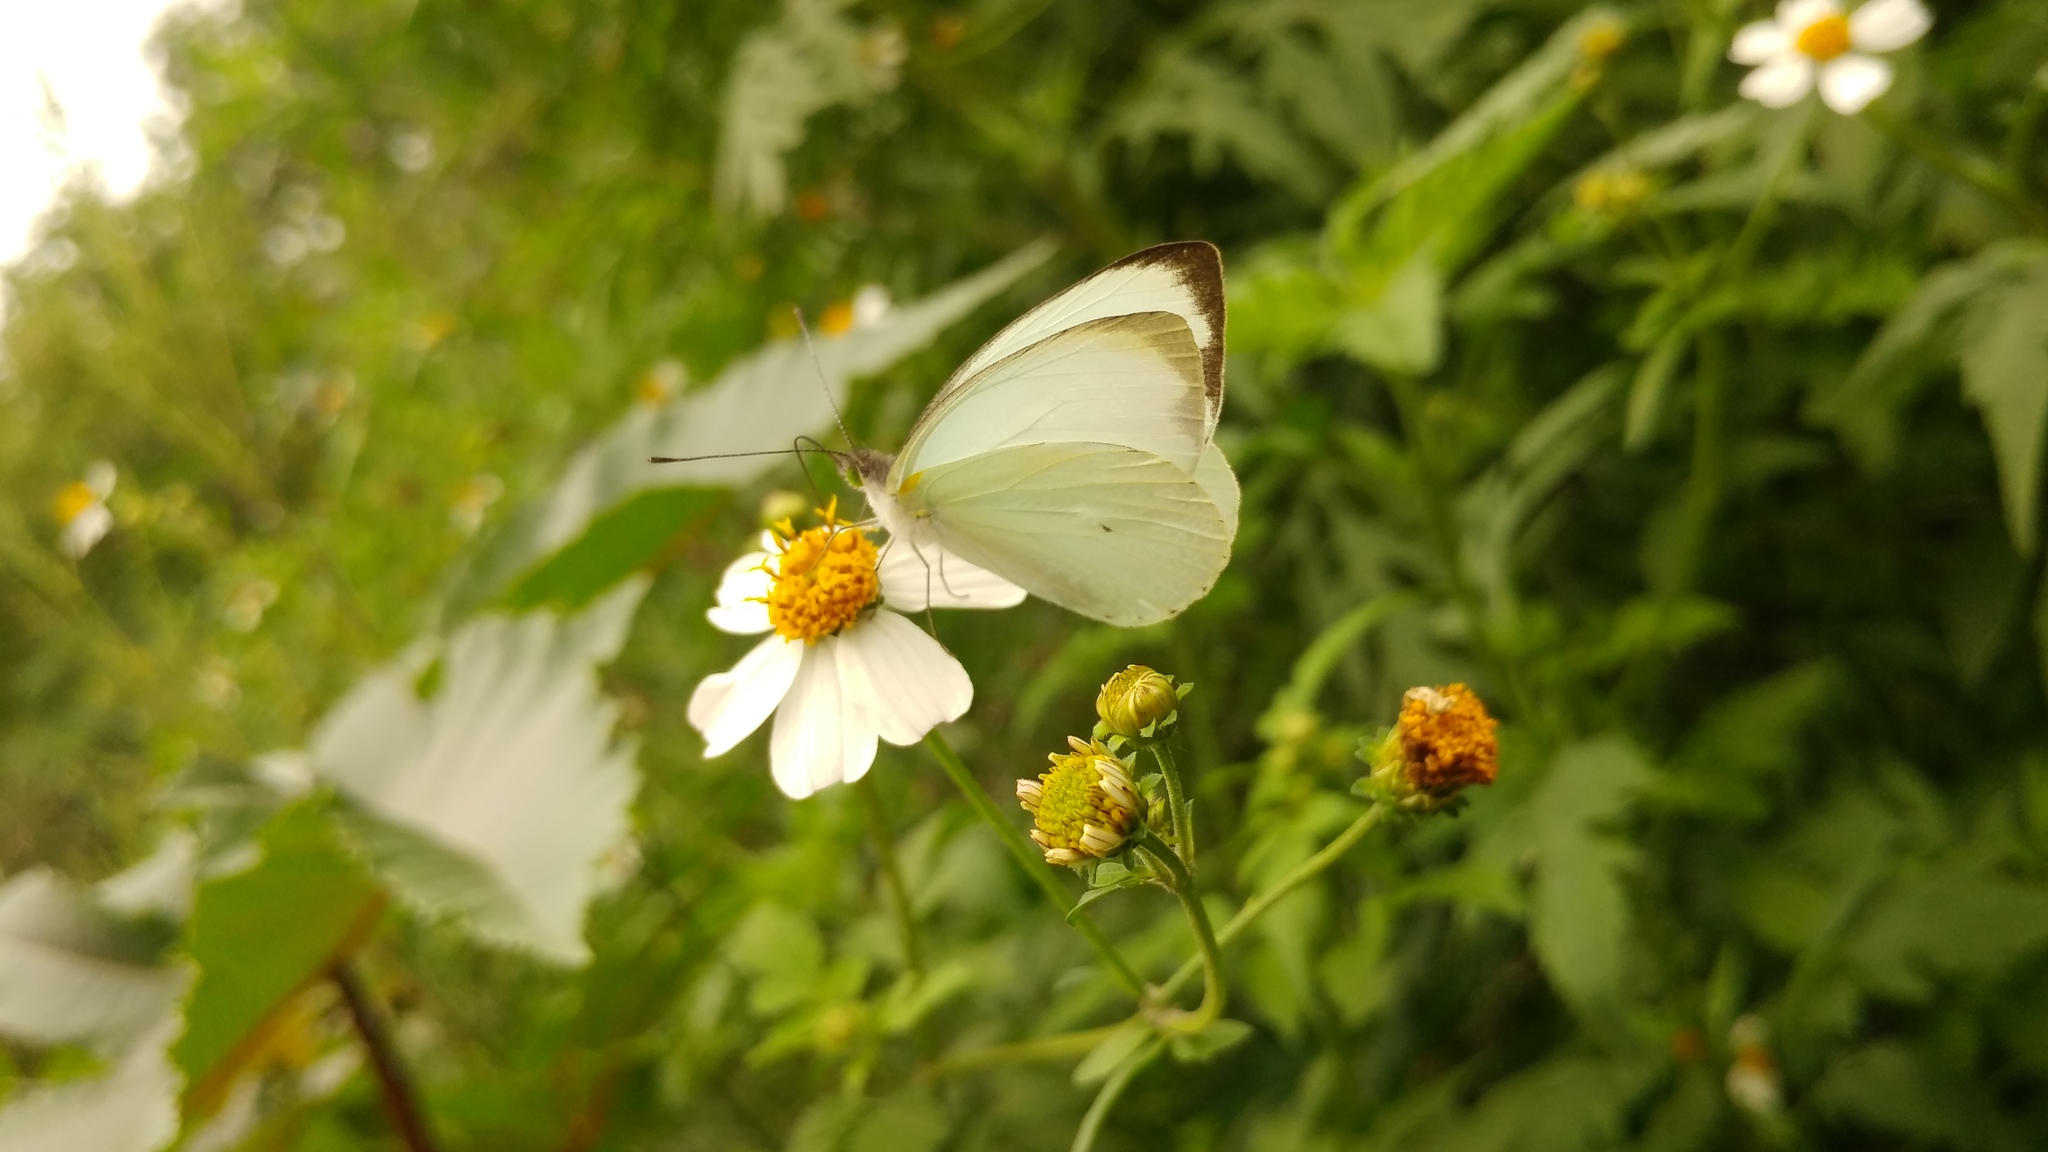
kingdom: Animalia
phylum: Arthropoda
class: Insecta
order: Lepidoptera
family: Pieridae
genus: Leptophobia
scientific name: Leptophobia aripa
